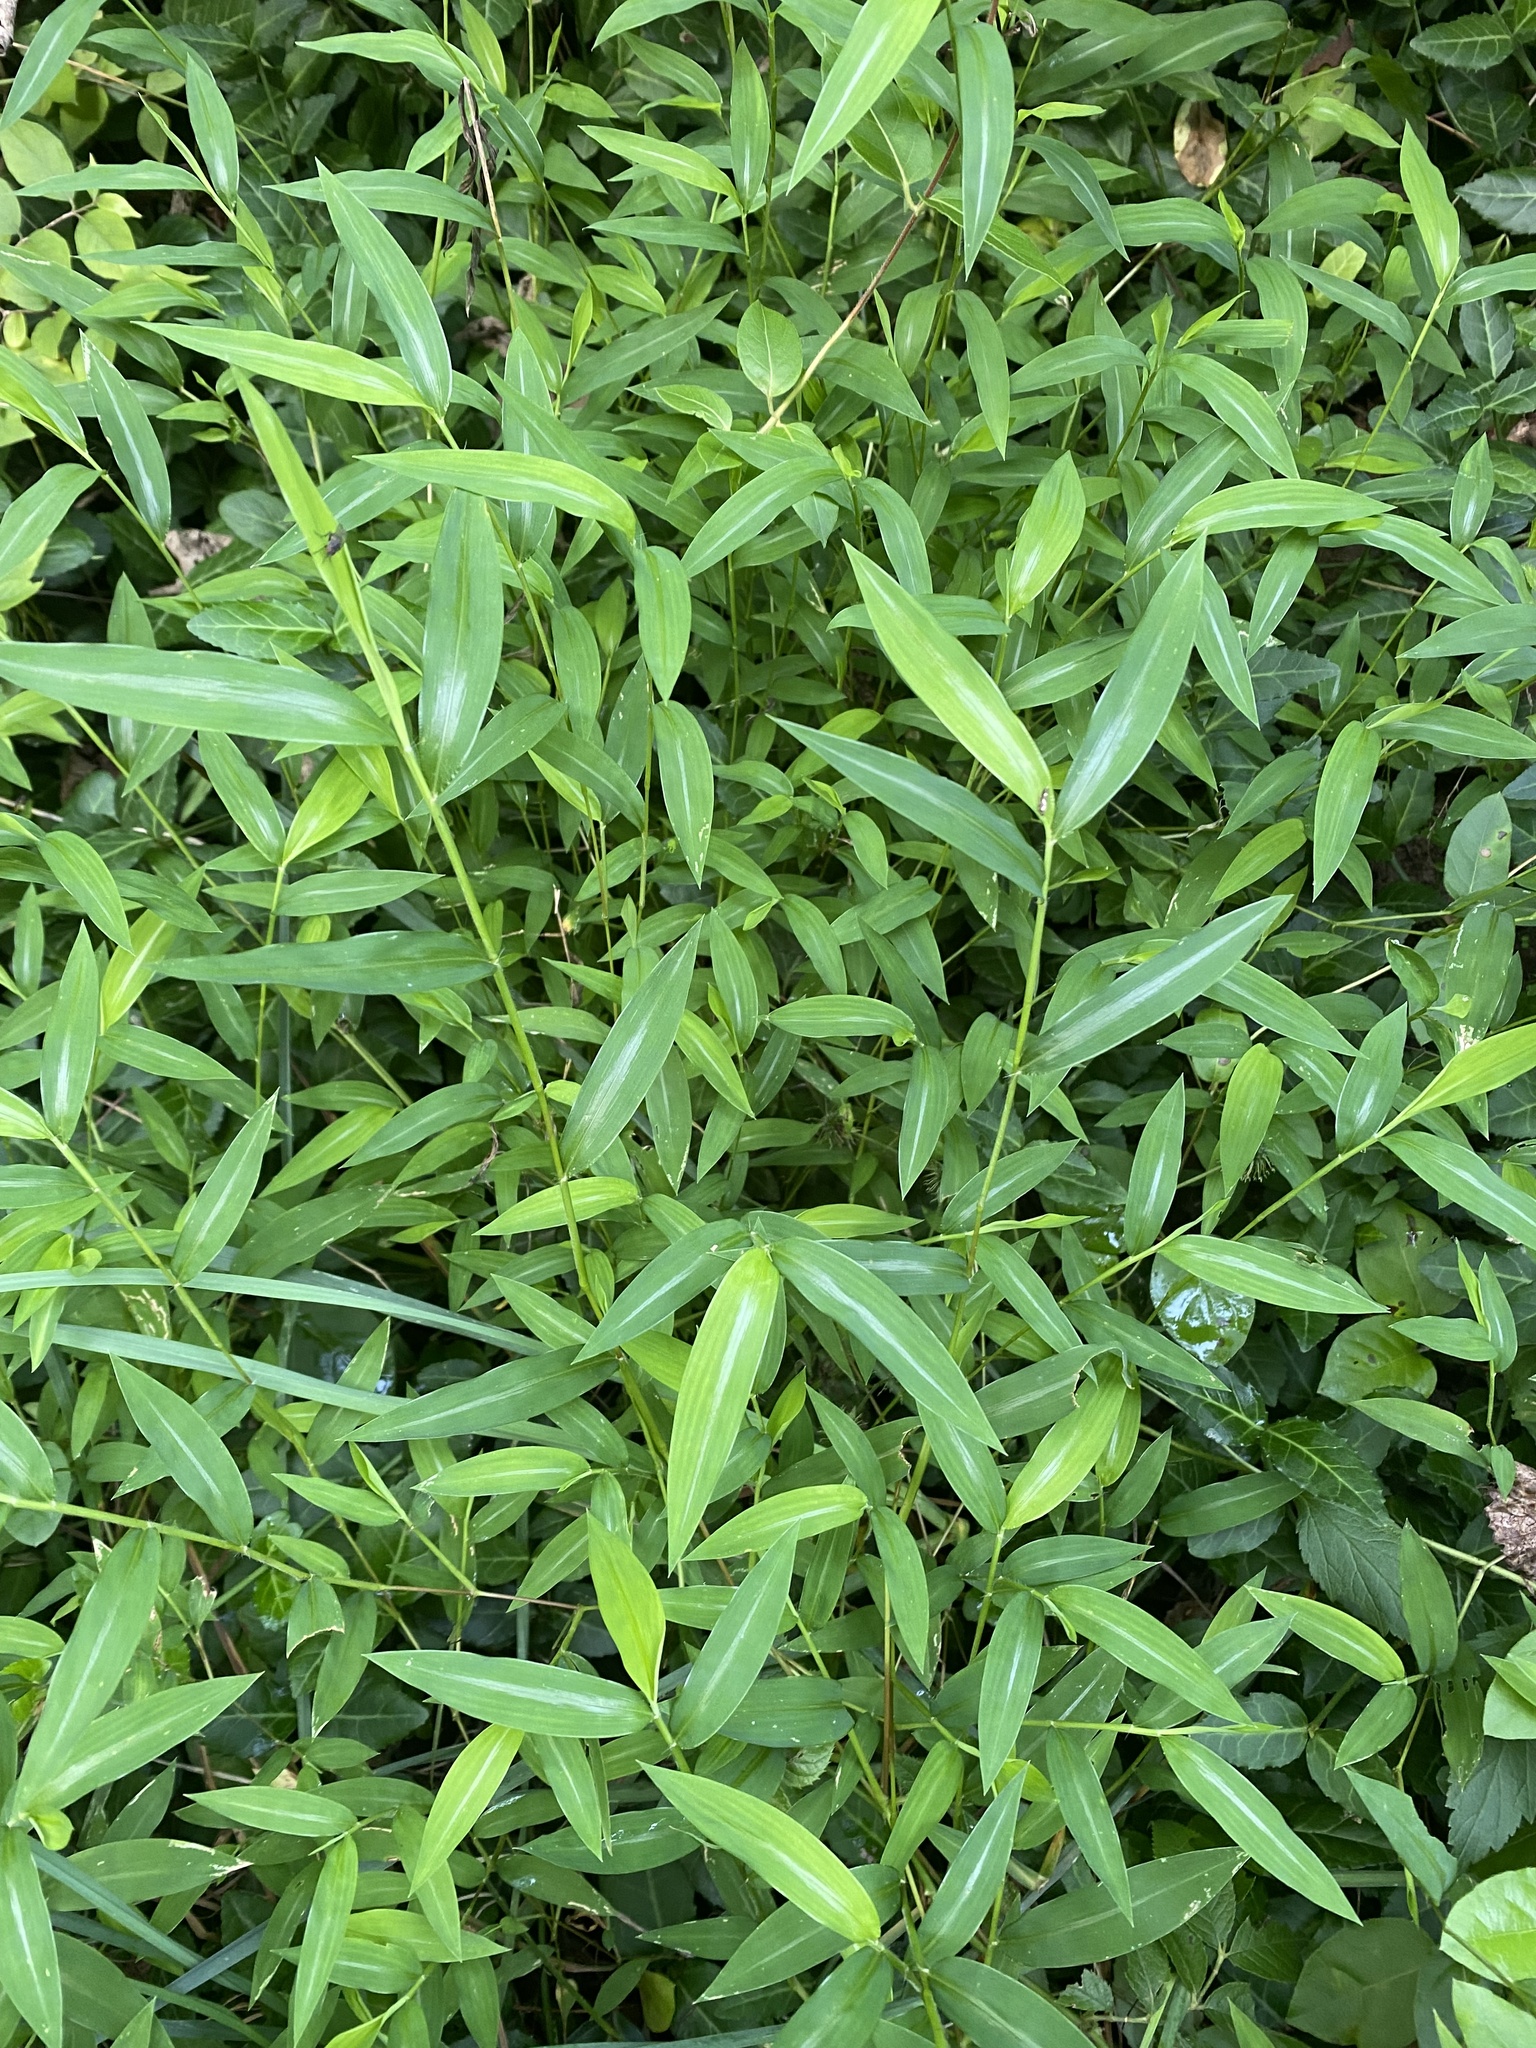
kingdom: Plantae
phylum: Tracheophyta
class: Liliopsida
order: Poales
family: Poaceae
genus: Microstegium
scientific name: Microstegium vimineum
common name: Japanese stiltgrass
